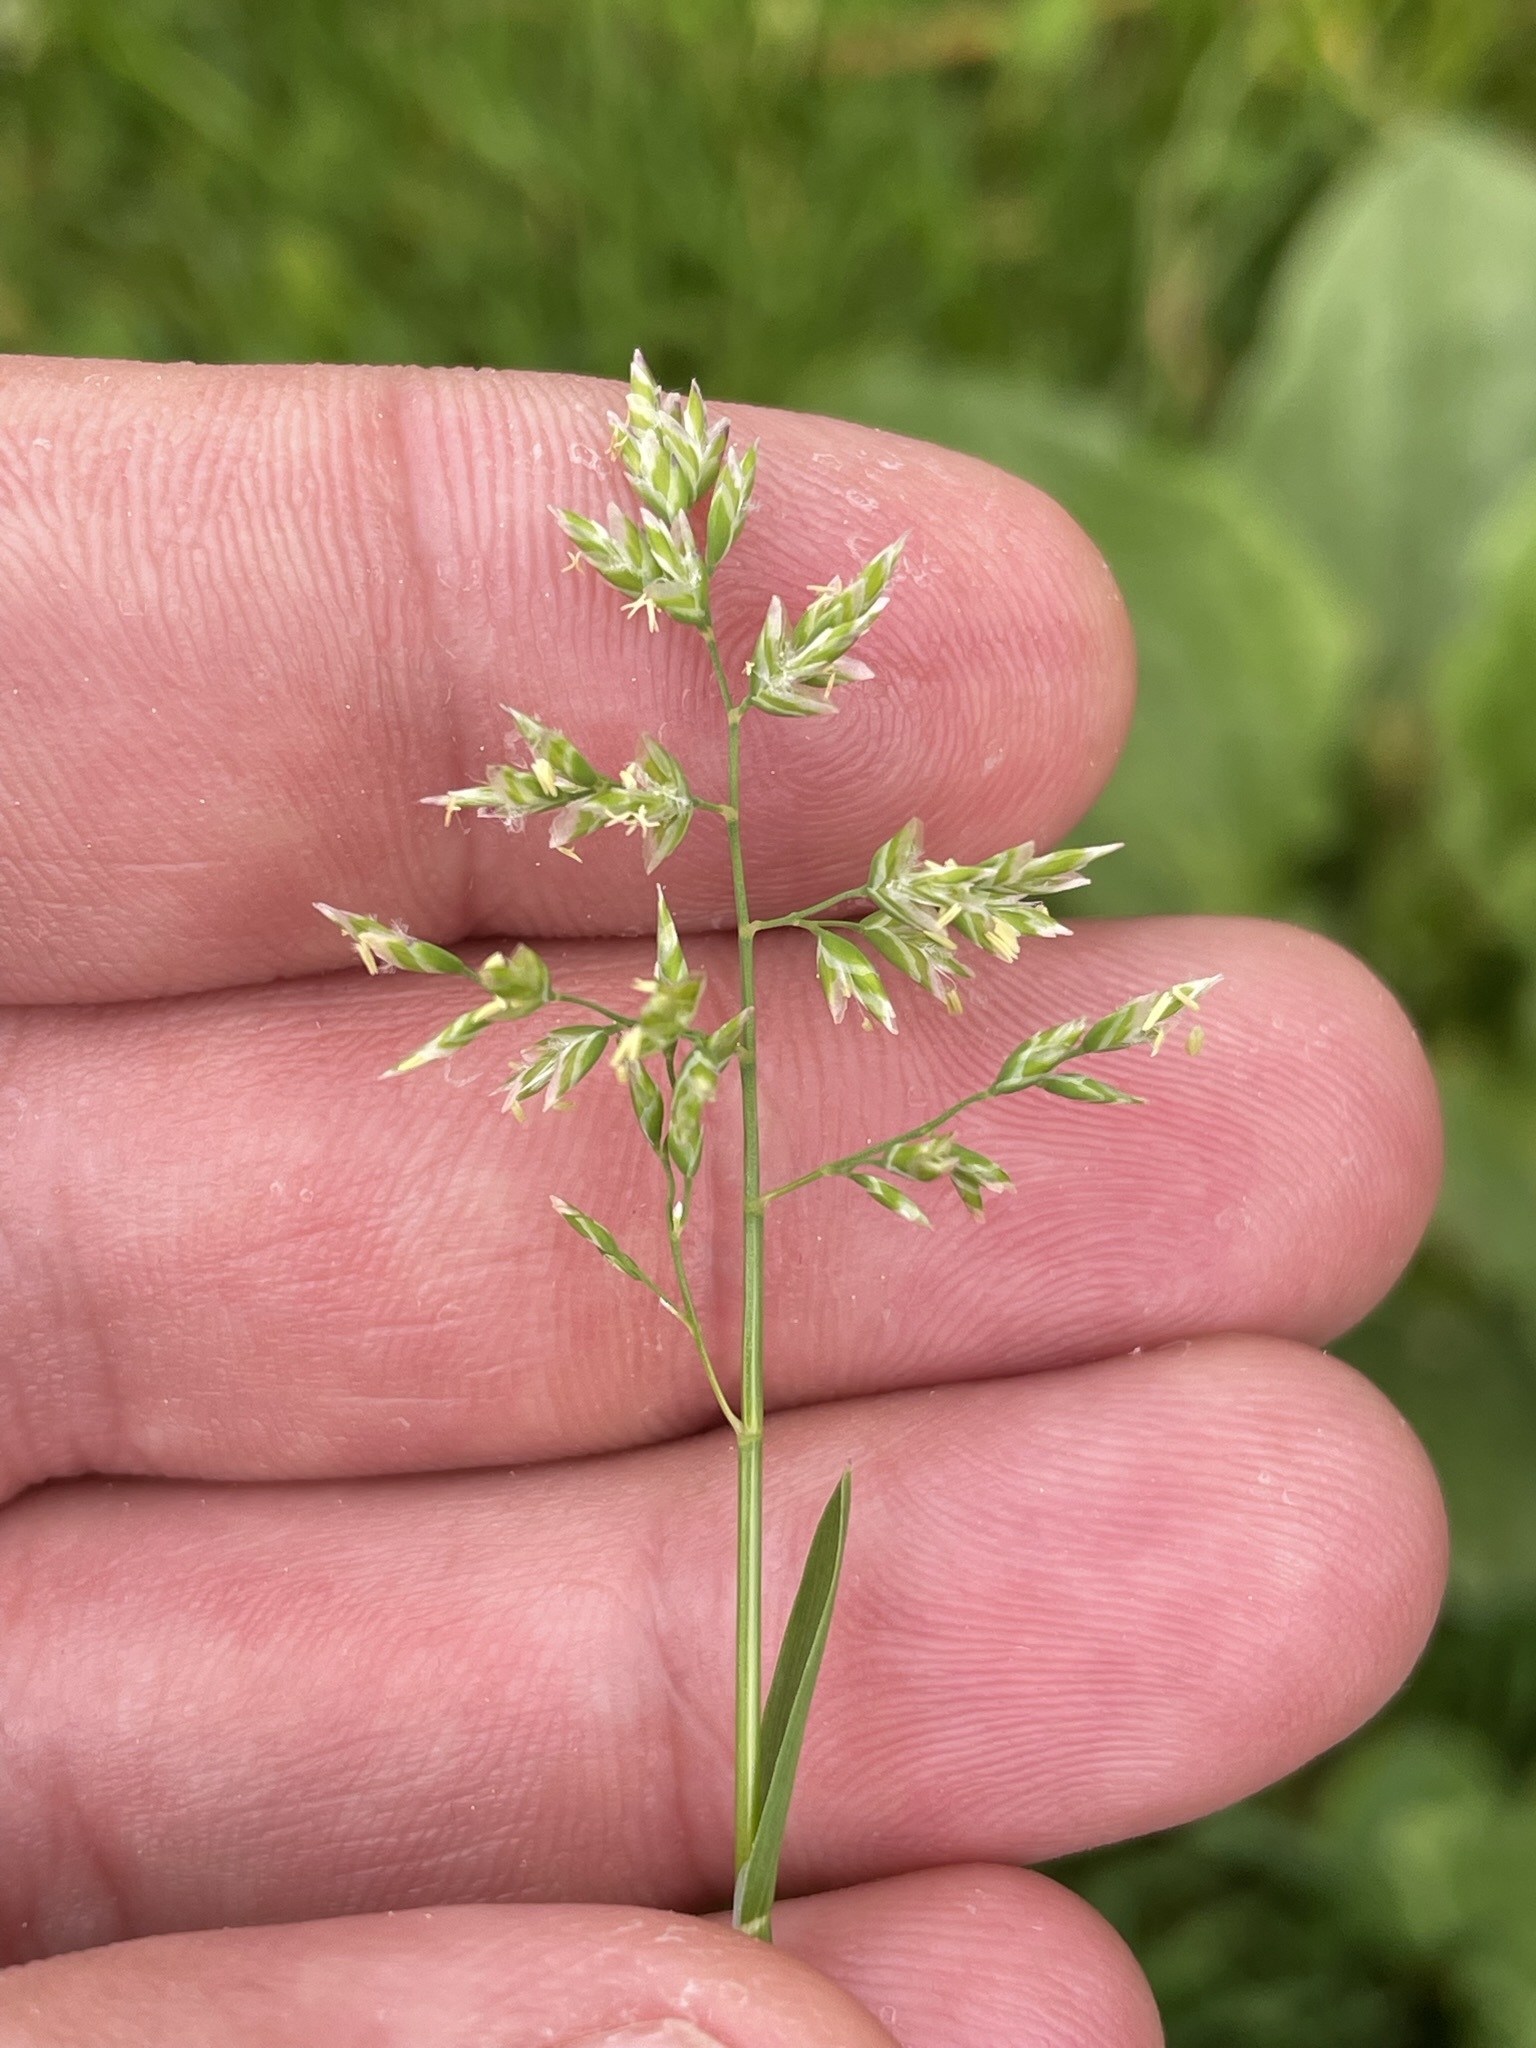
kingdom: Plantae
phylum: Tracheophyta
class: Liliopsida
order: Poales
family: Poaceae
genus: Poa
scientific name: Poa annua
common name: Annual bluegrass
